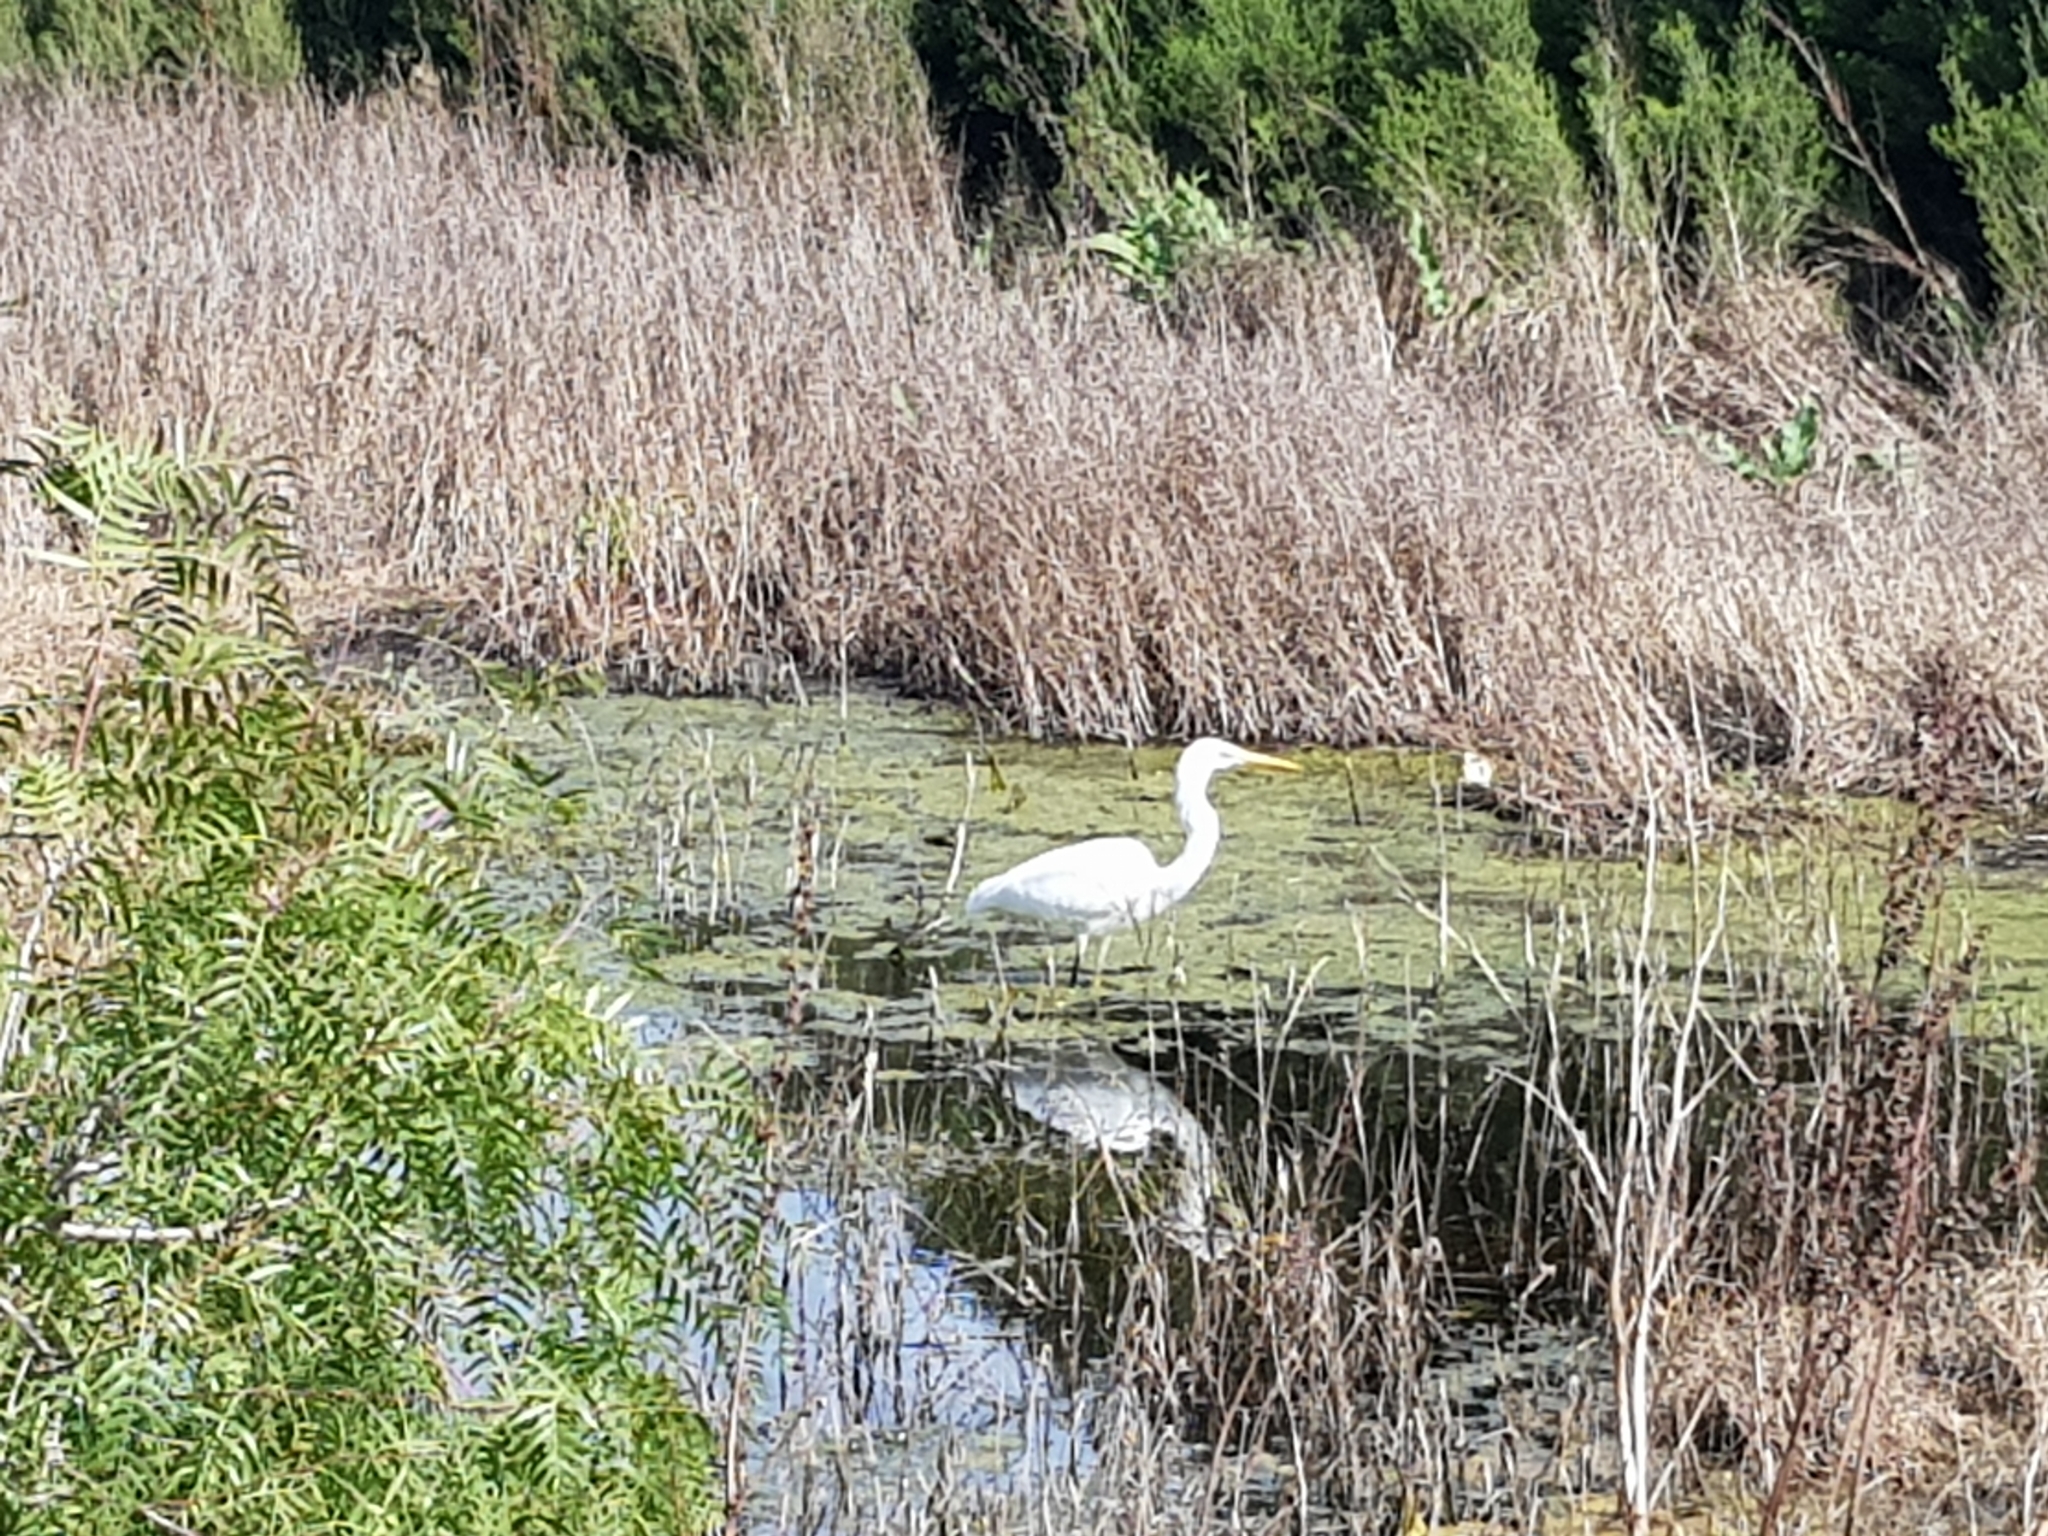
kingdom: Animalia
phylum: Chordata
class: Aves
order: Pelecaniformes
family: Ardeidae
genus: Ardea
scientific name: Ardea modesta
